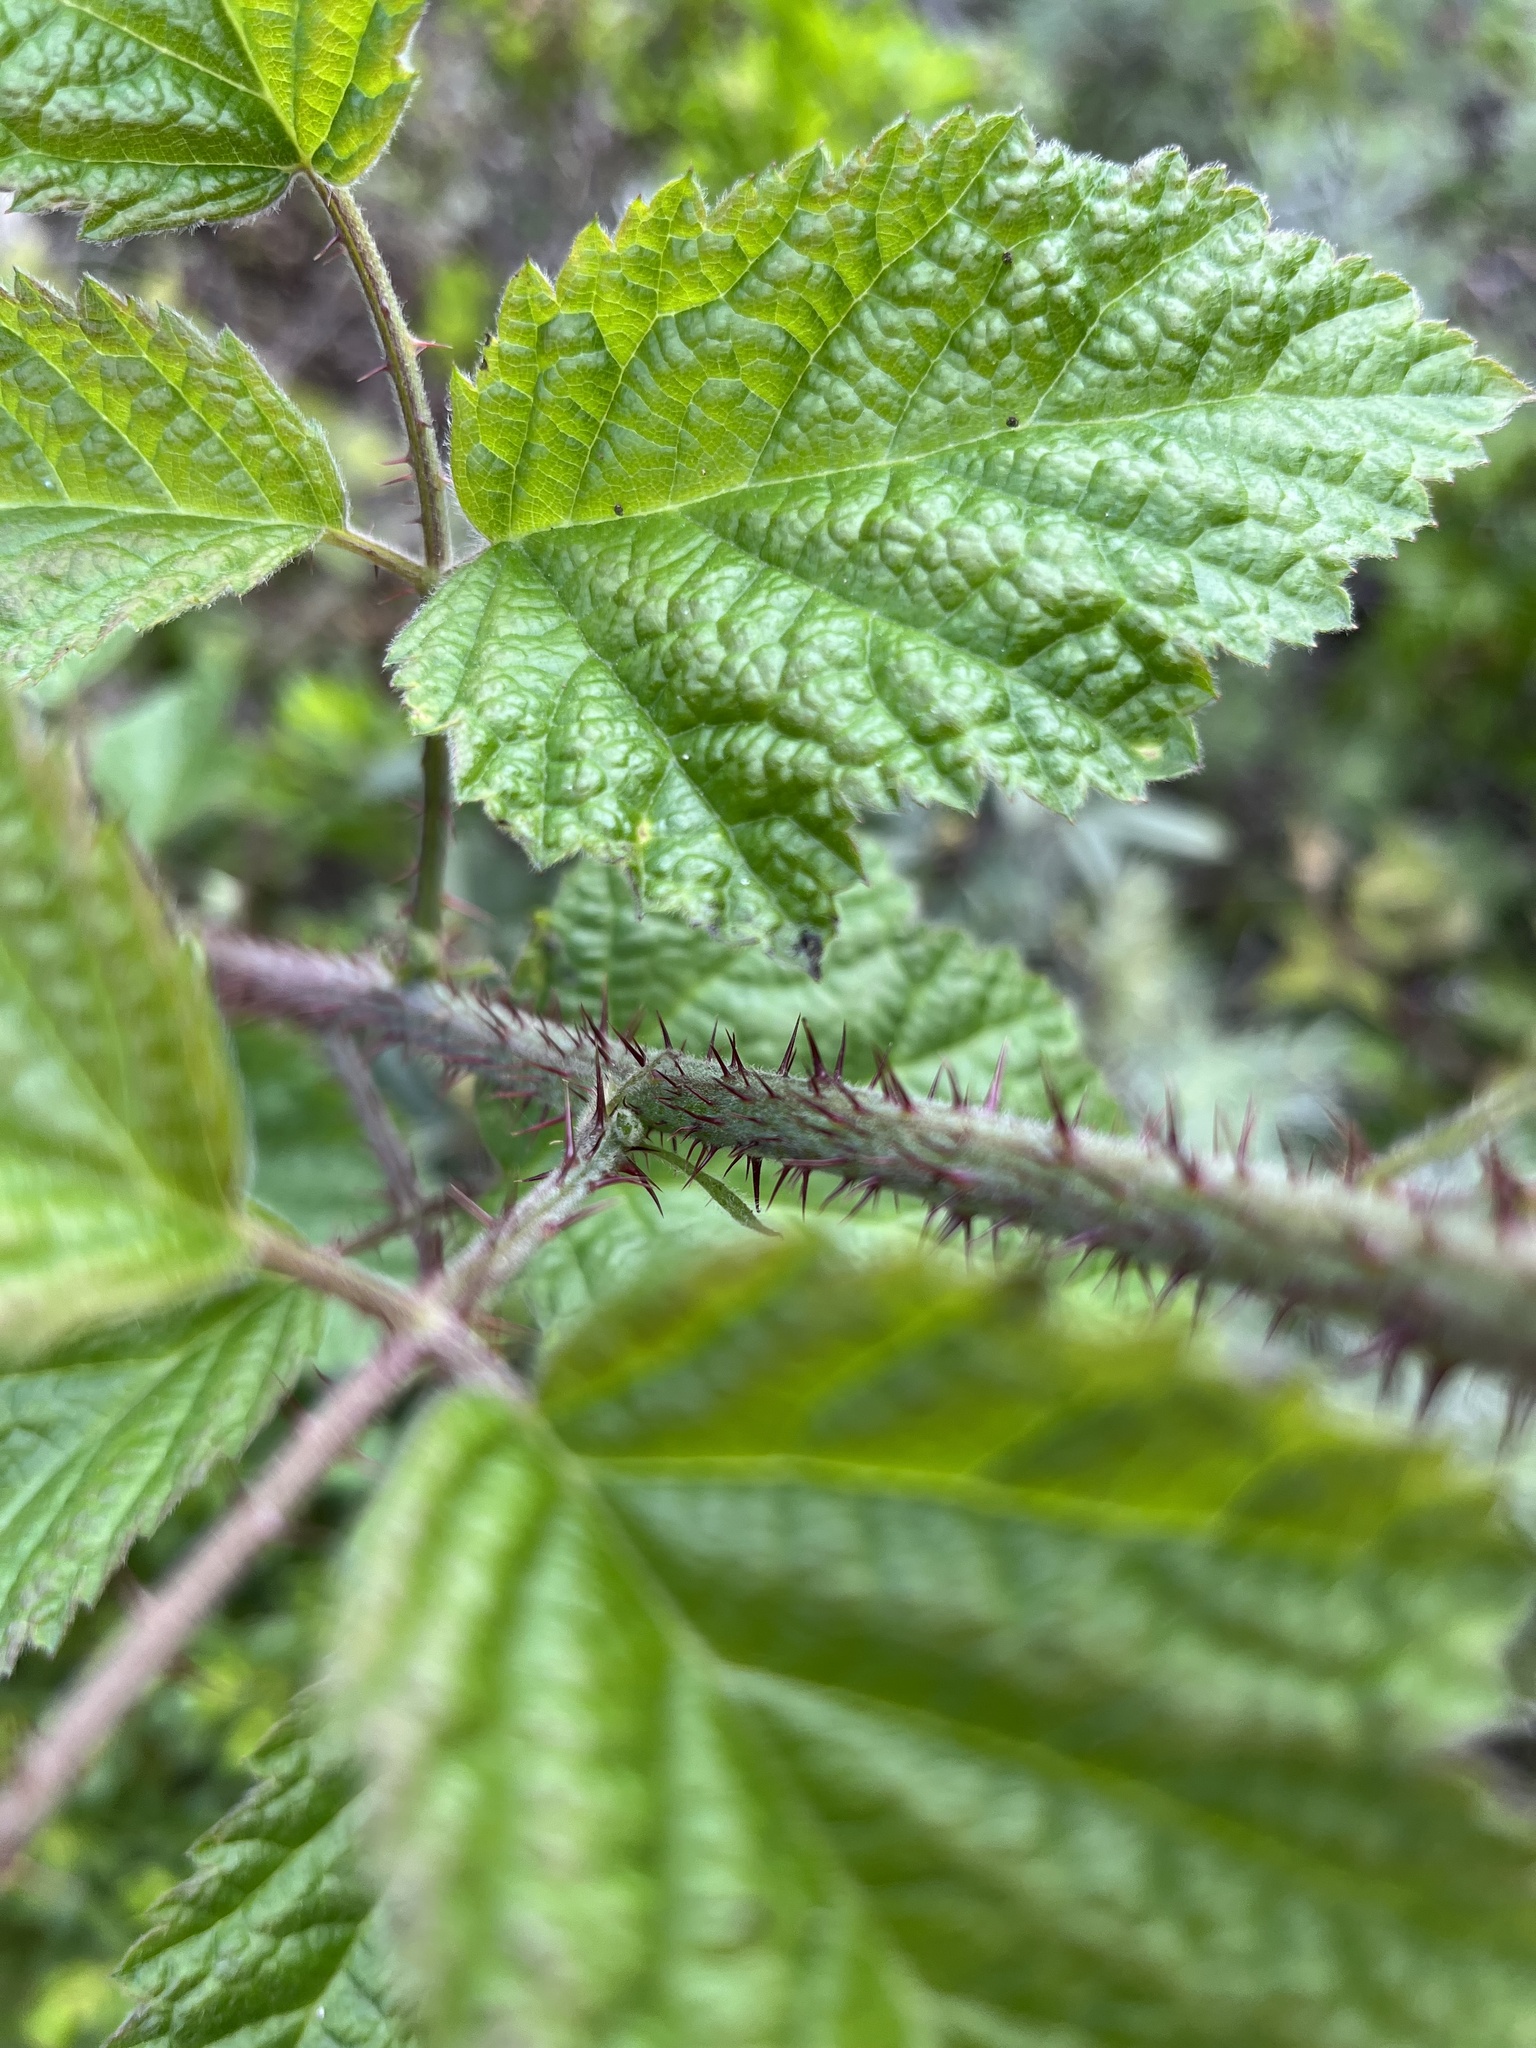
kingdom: Plantae
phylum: Tracheophyta
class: Magnoliopsida
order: Rosales
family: Rosaceae
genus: Rubus
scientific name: Rubus ursinus
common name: Pacific blackberry
